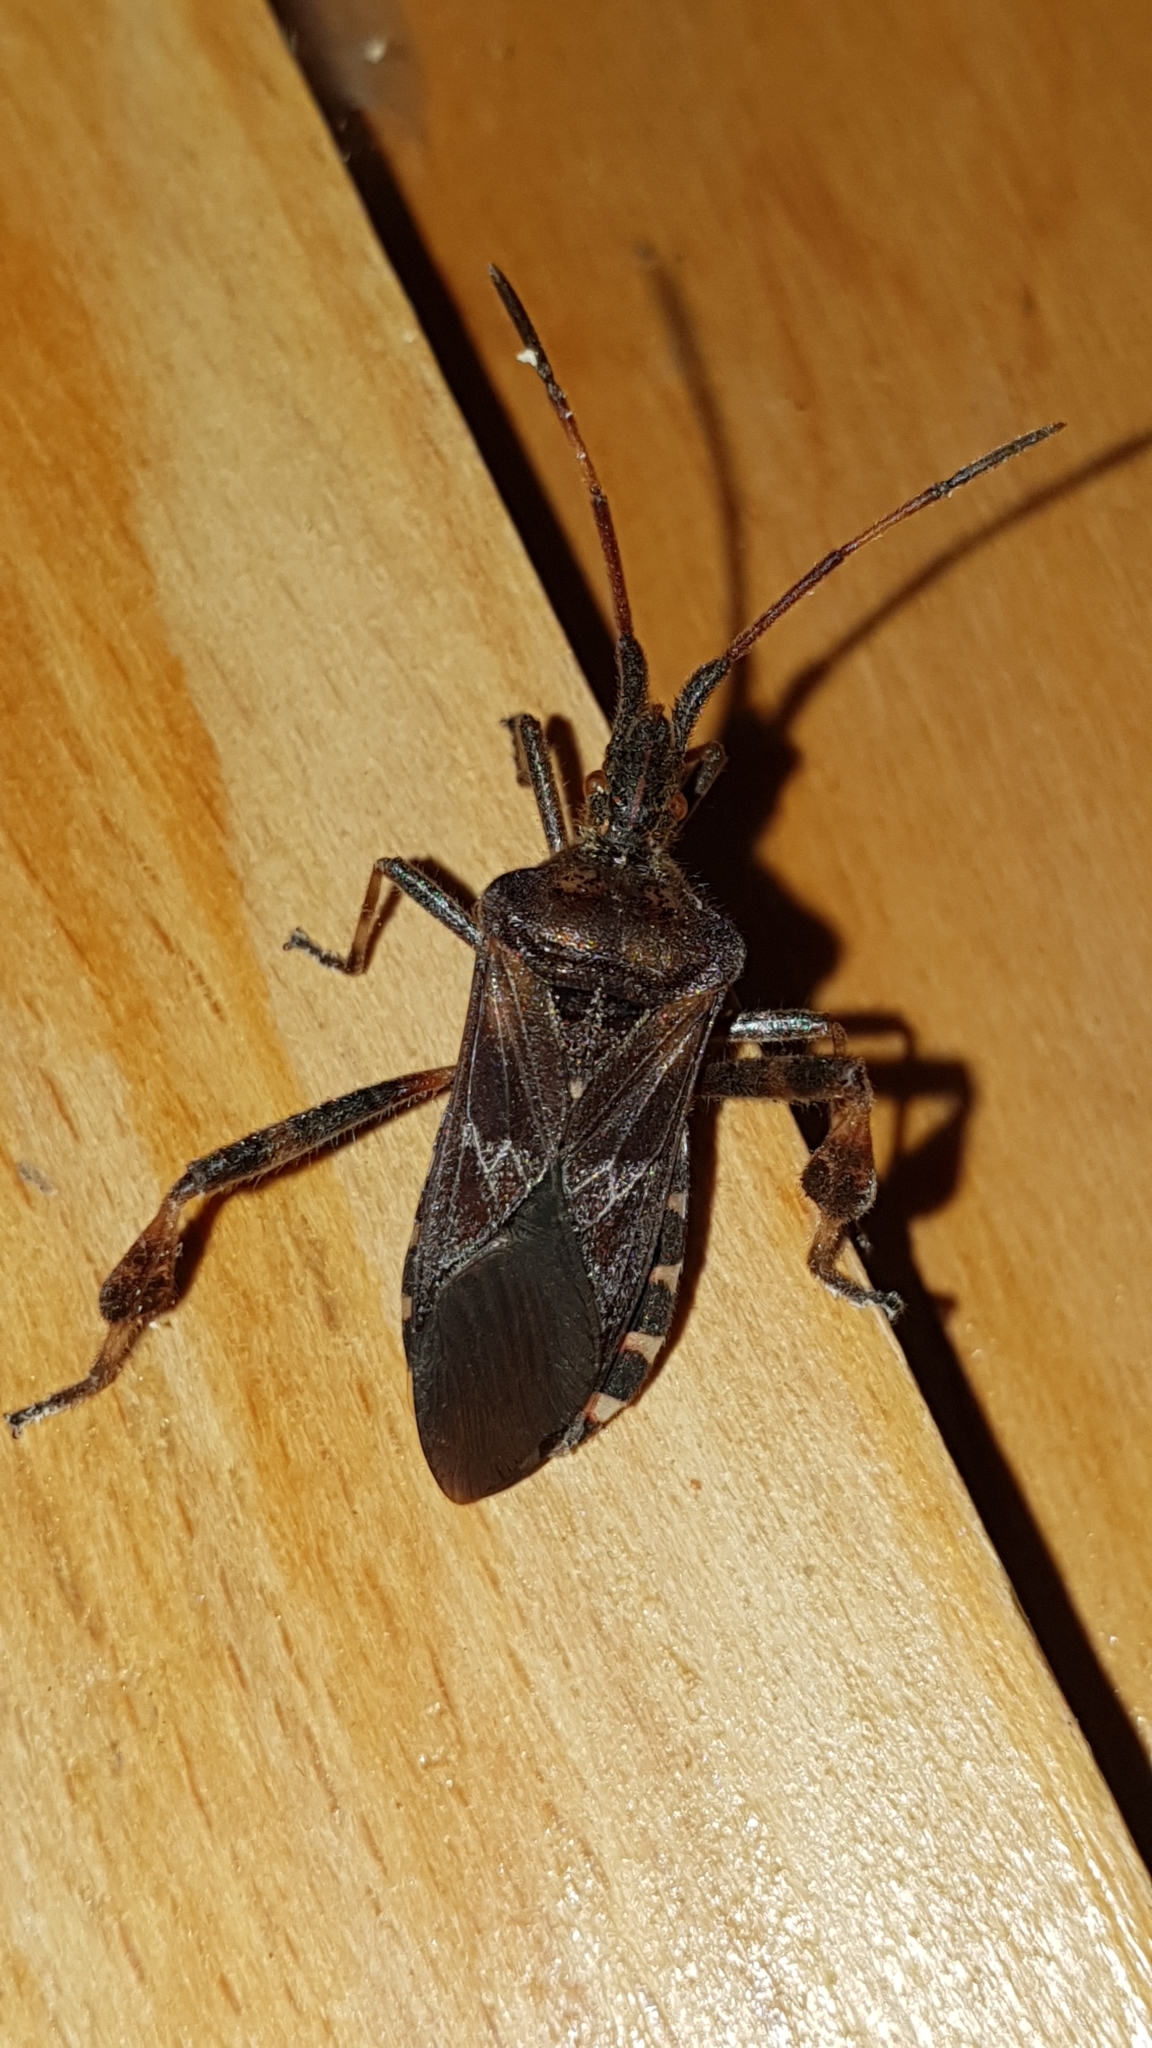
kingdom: Animalia
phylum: Arthropoda
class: Insecta
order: Hemiptera
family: Coreidae
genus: Leptoglossus
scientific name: Leptoglossus occidentalis
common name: Western conifer-seed bug
